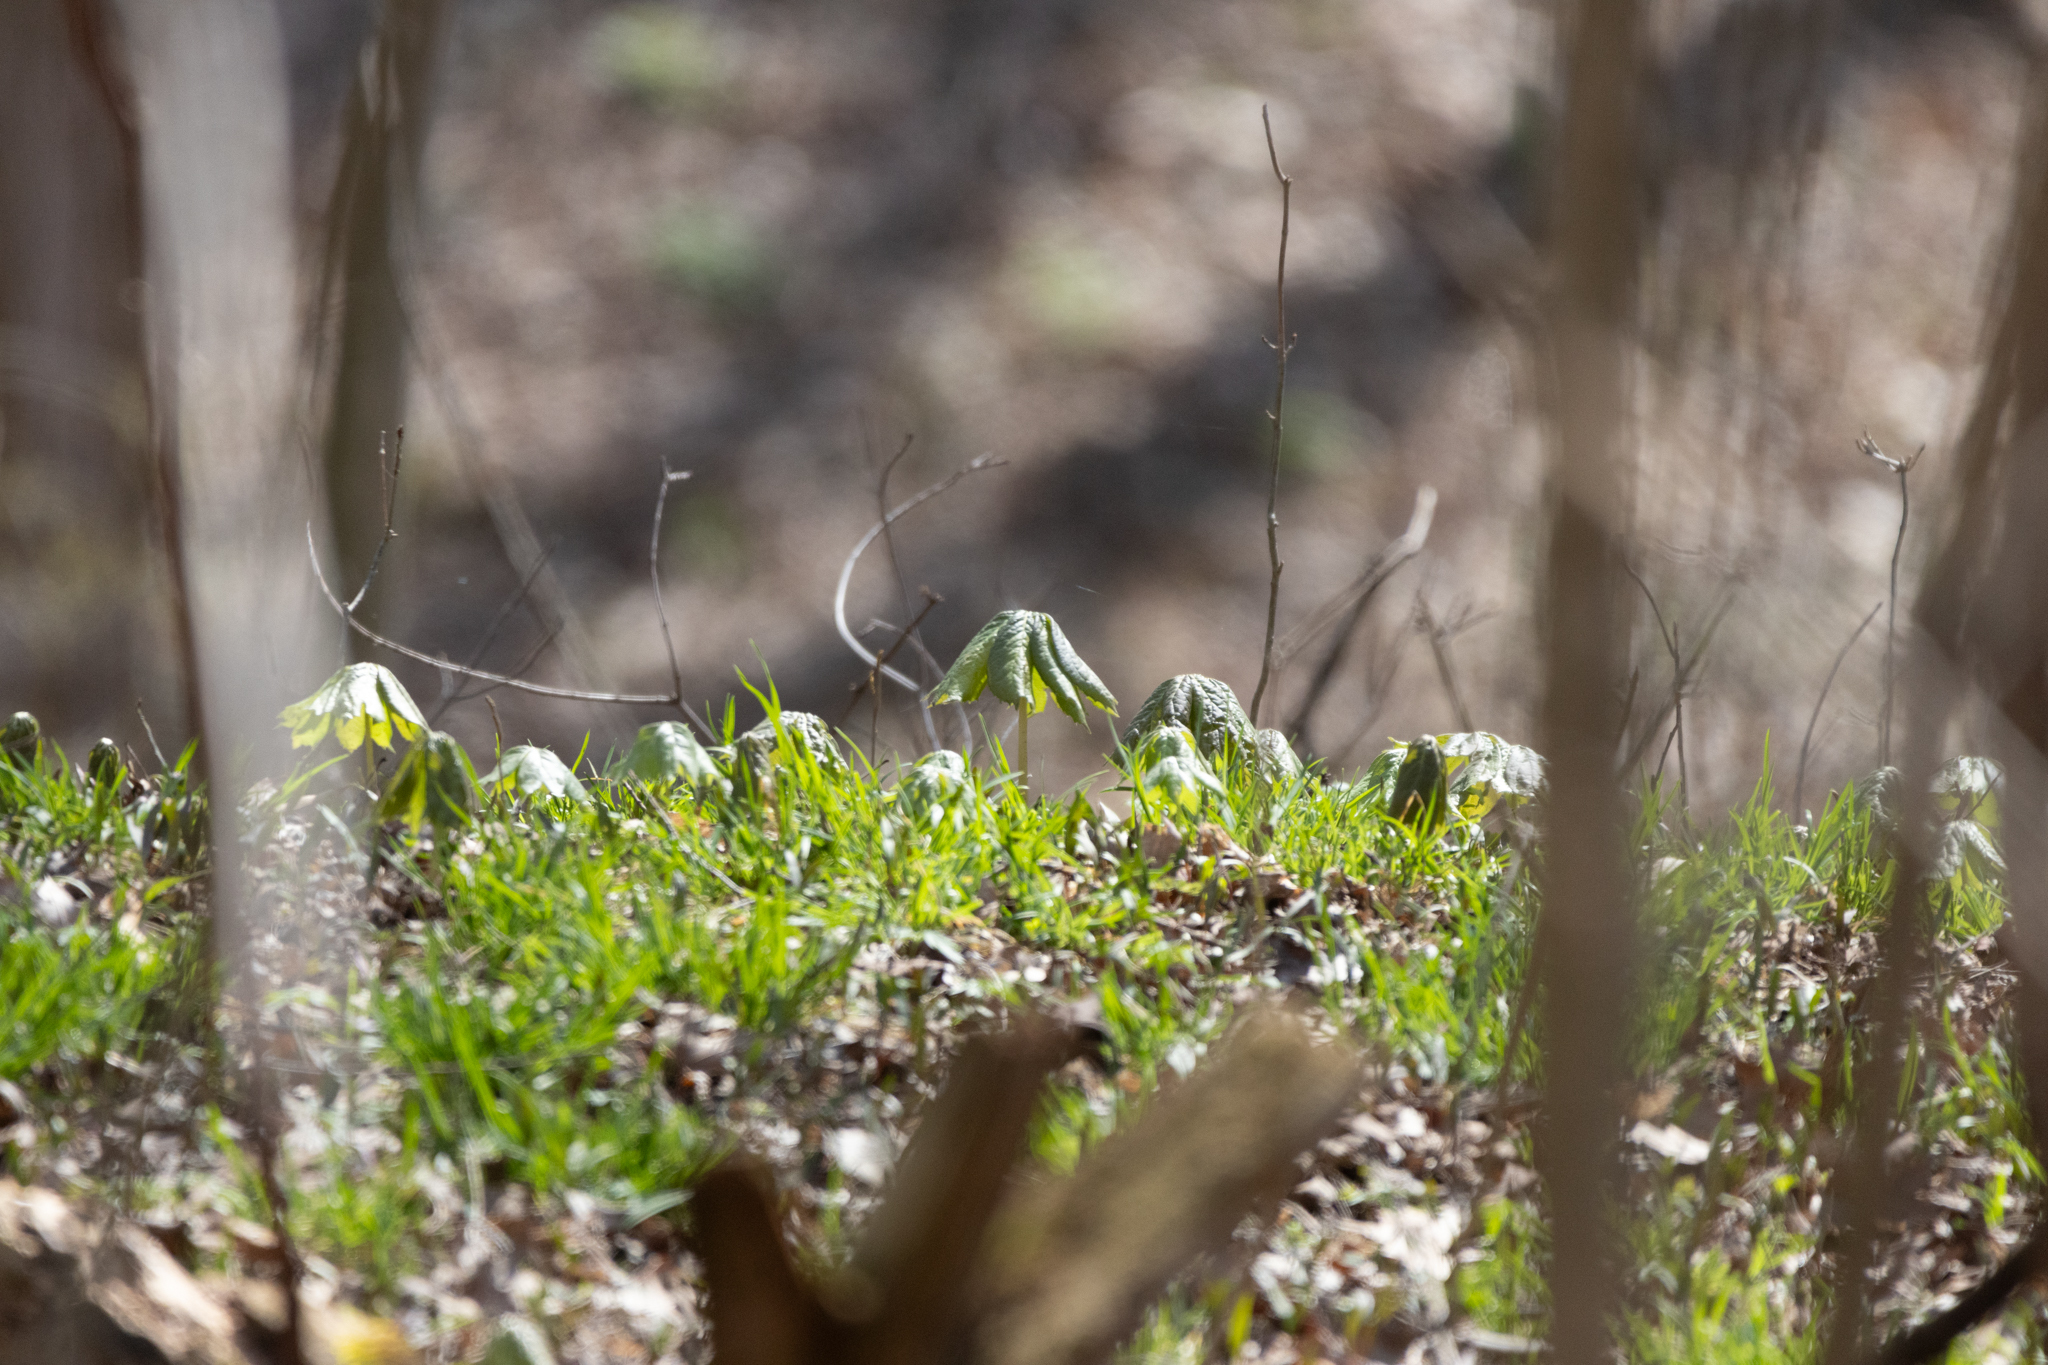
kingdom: Plantae
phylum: Tracheophyta
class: Magnoliopsida
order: Ranunculales
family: Berberidaceae
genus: Podophyllum
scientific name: Podophyllum peltatum
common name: Wild mandrake
